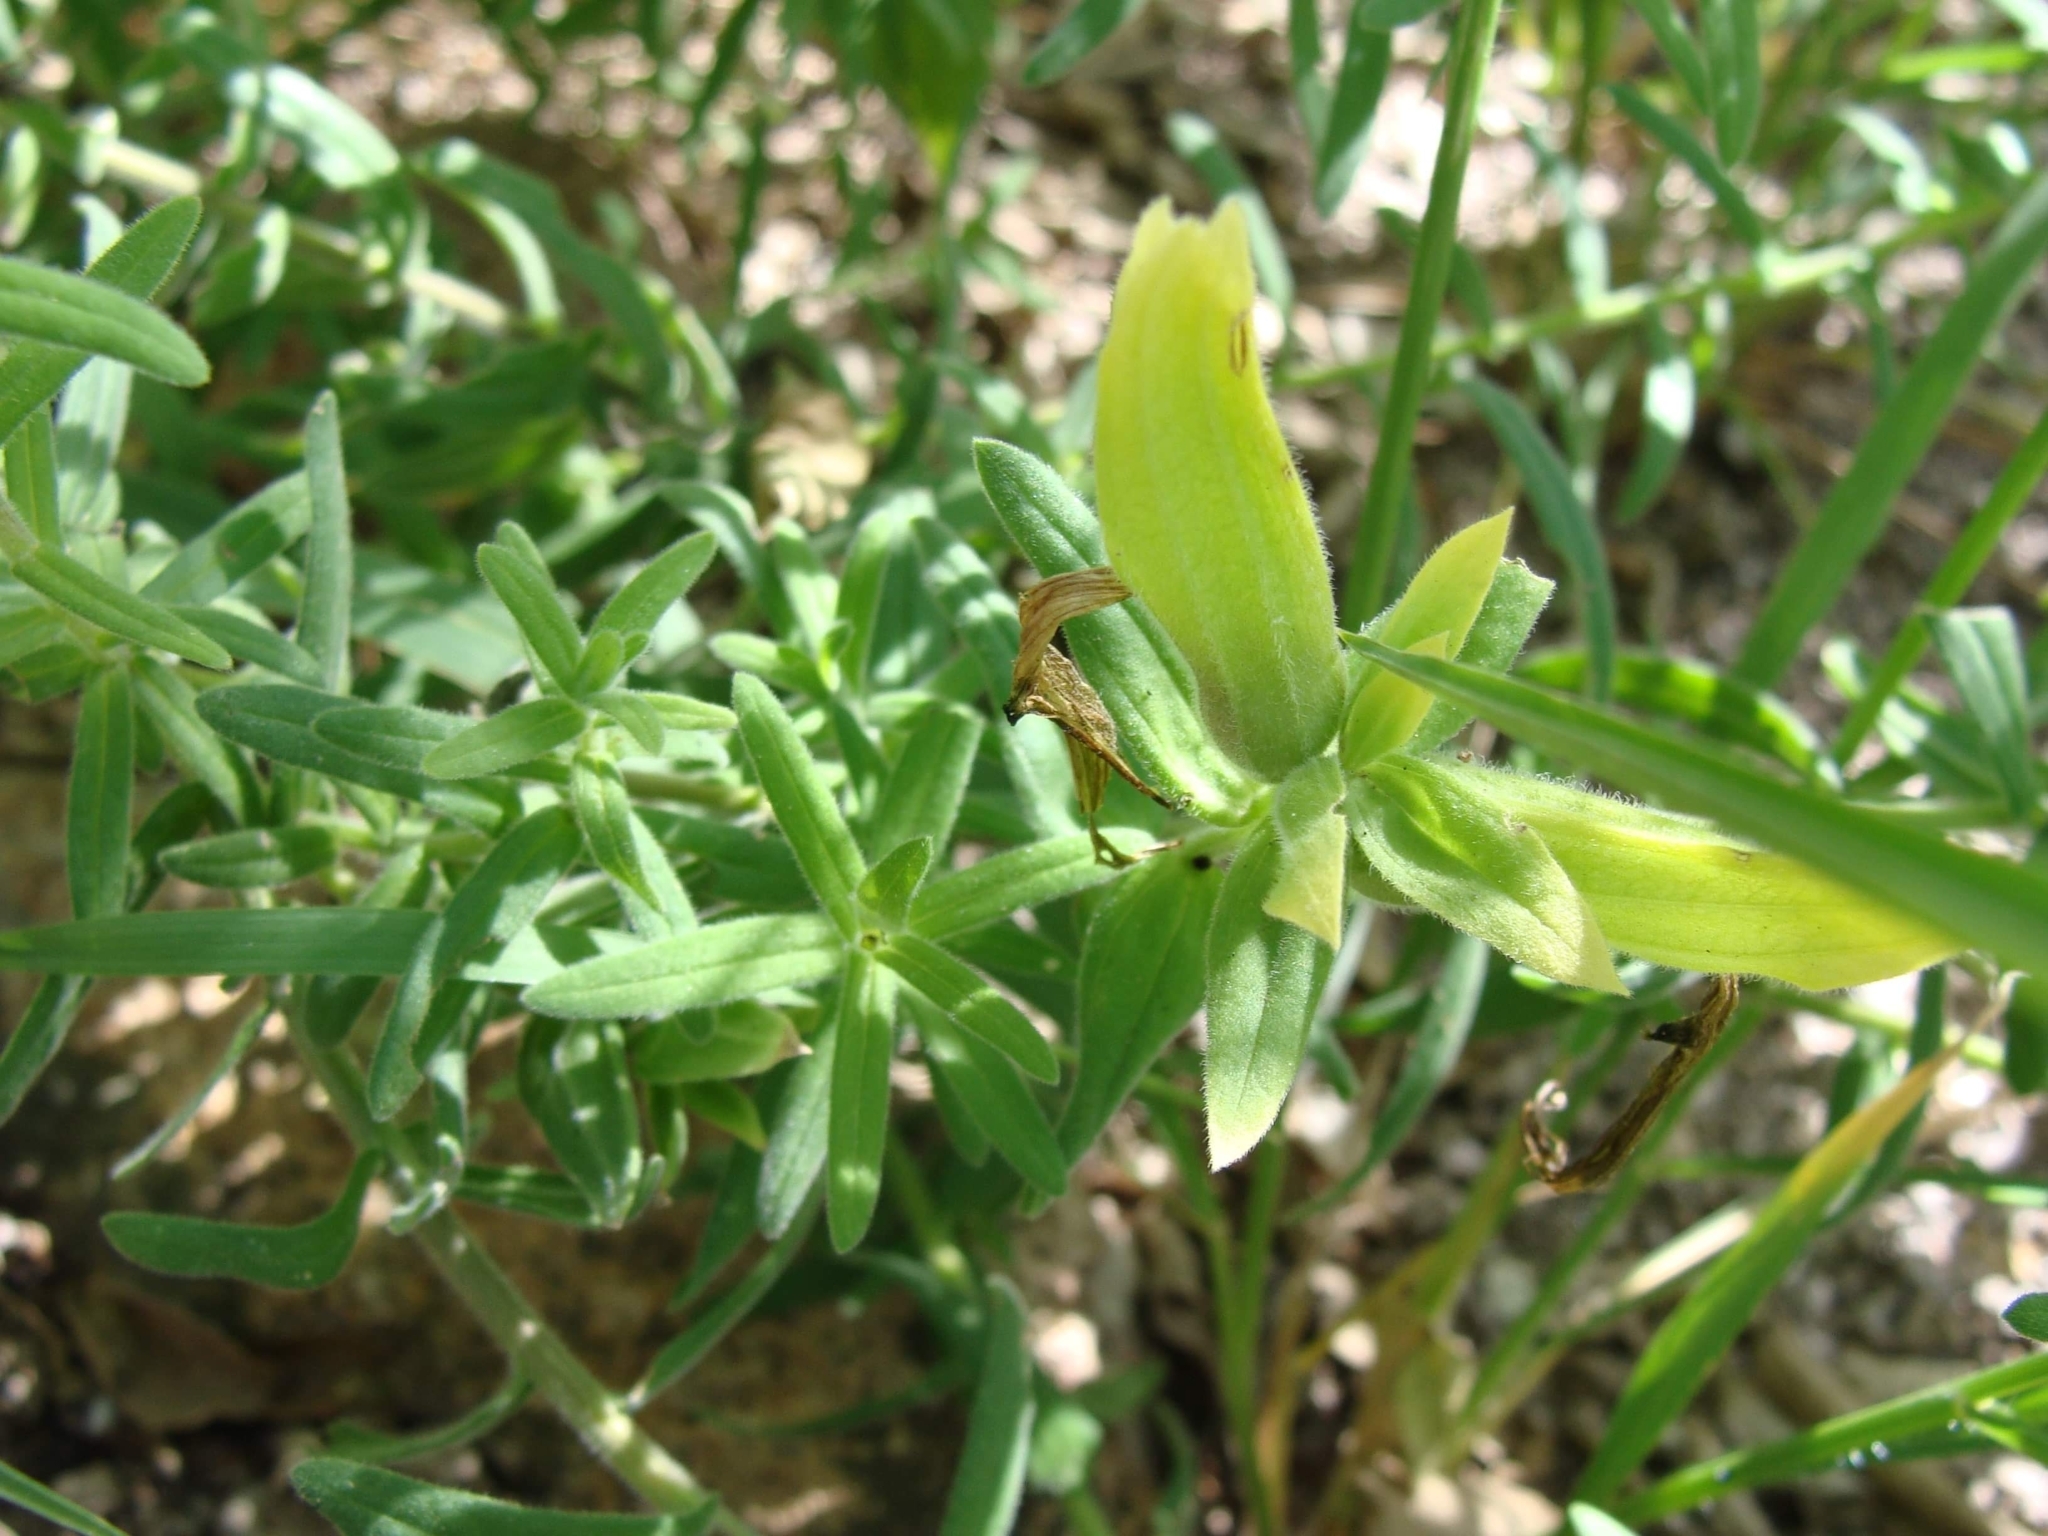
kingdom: Plantae
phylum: Tracheophyta
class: Magnoliopsida
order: Lamiales
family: Orobanchaceae
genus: Castilleja
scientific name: Castilleja tenuiflora
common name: Santa catalina indian paintbrush
